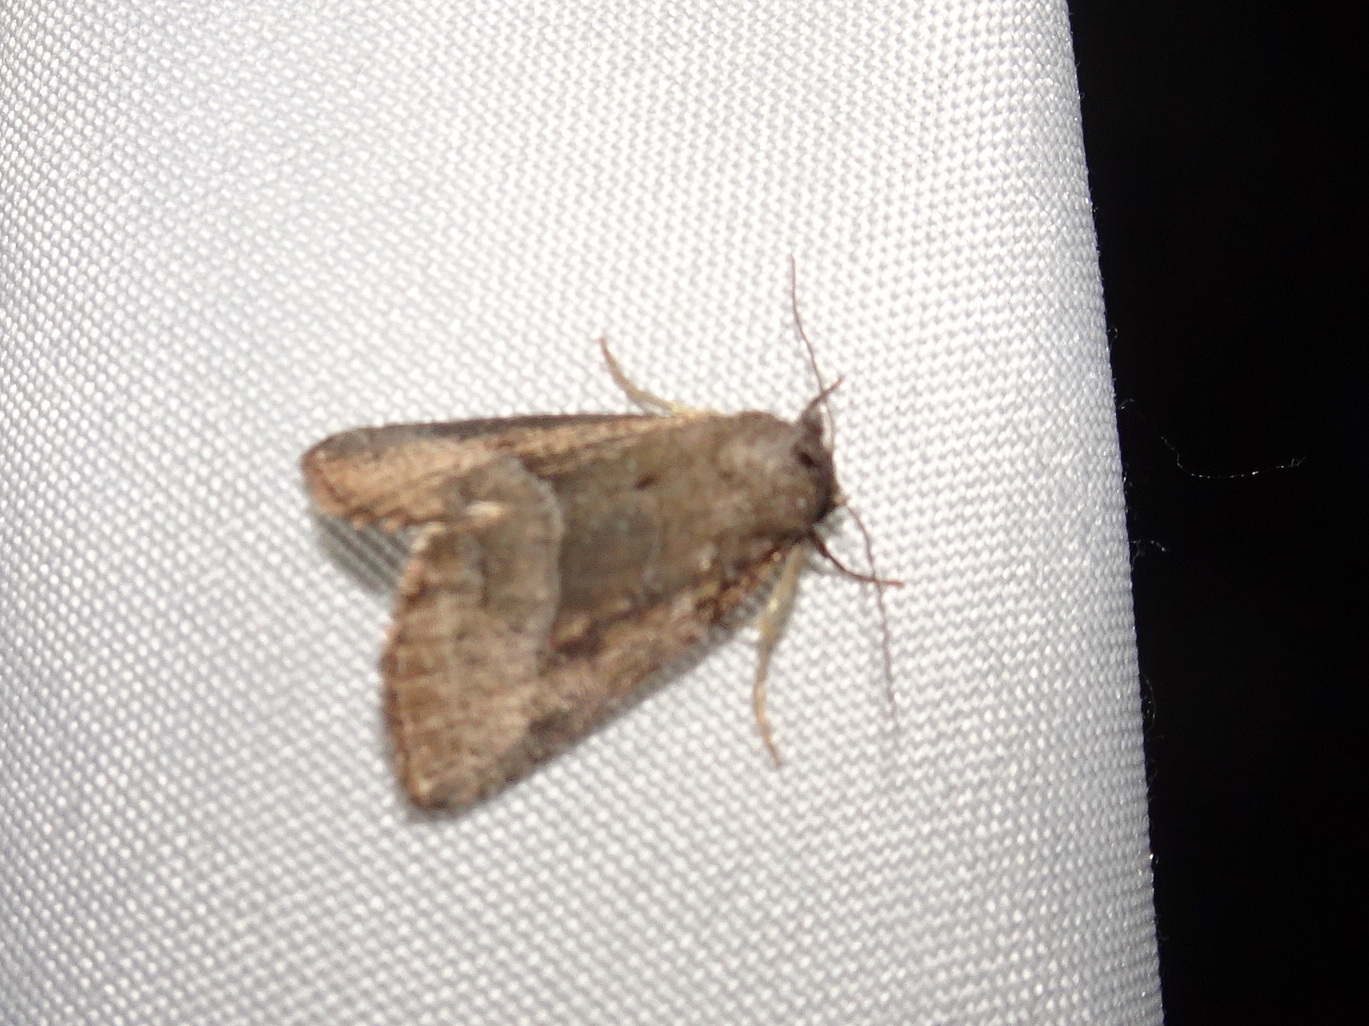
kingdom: Animalia
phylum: Arthropoda
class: Insecta
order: Lepidoptera
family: Noctuidae
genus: Ogdoconta
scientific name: Ogdoconta cinereola
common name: Common pinkband
